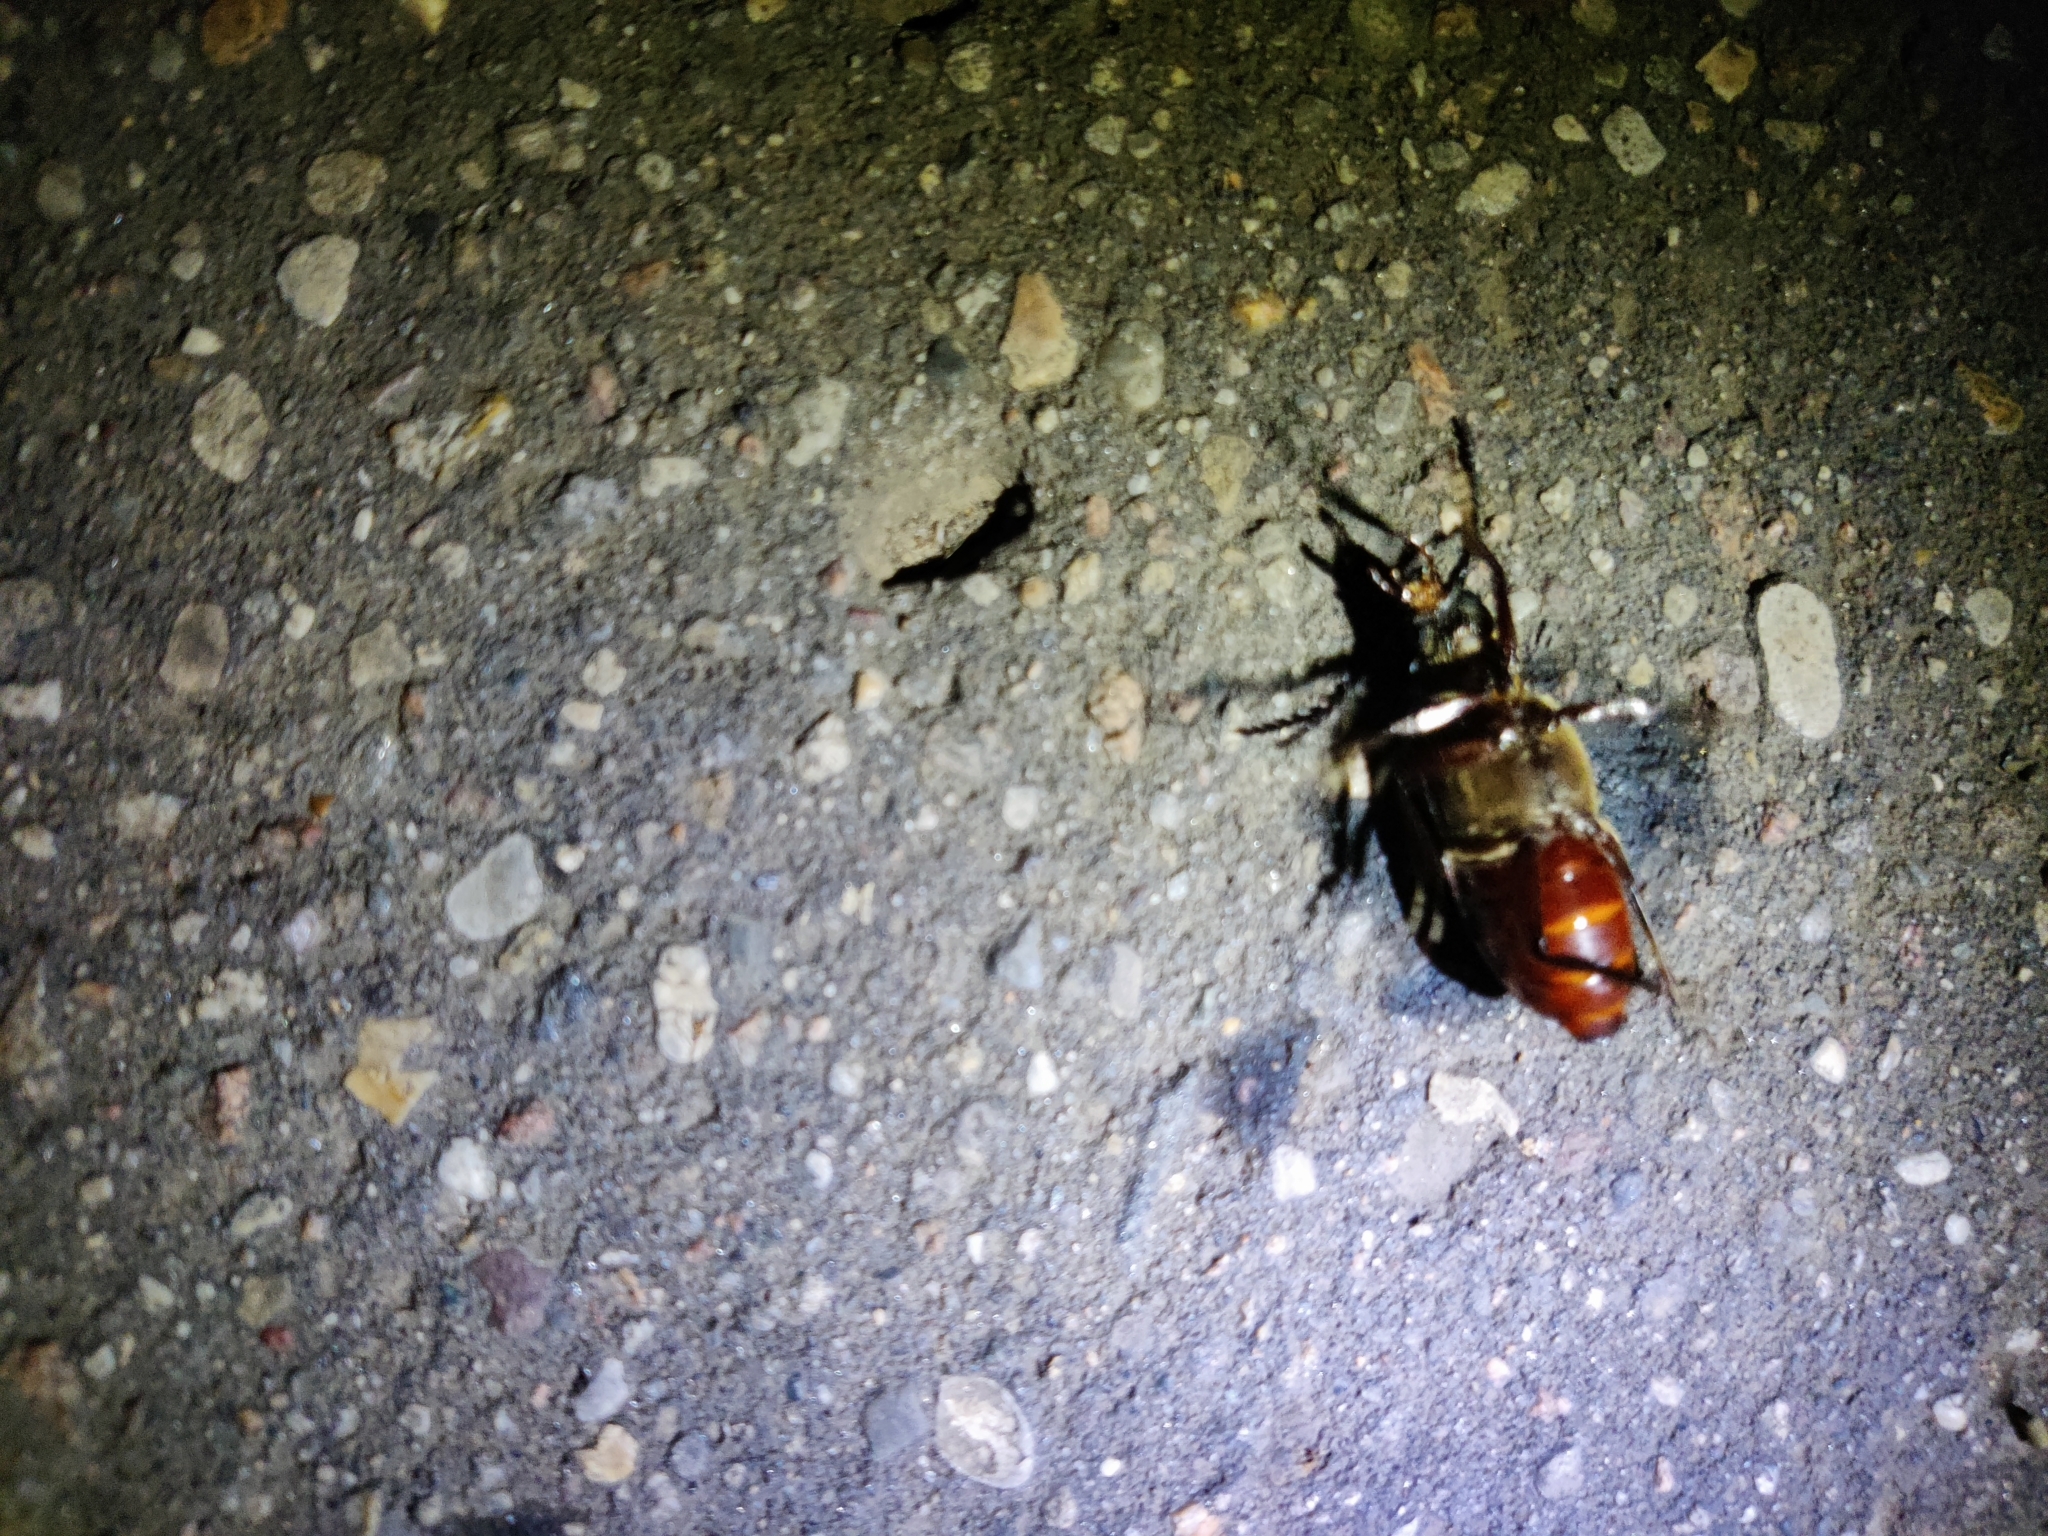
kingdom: Animalia
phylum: Arthropoda
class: Insecta
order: Coleoptera
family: Cerambycidae
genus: Prionus
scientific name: Prionus coriarius
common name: Tanner beetle
